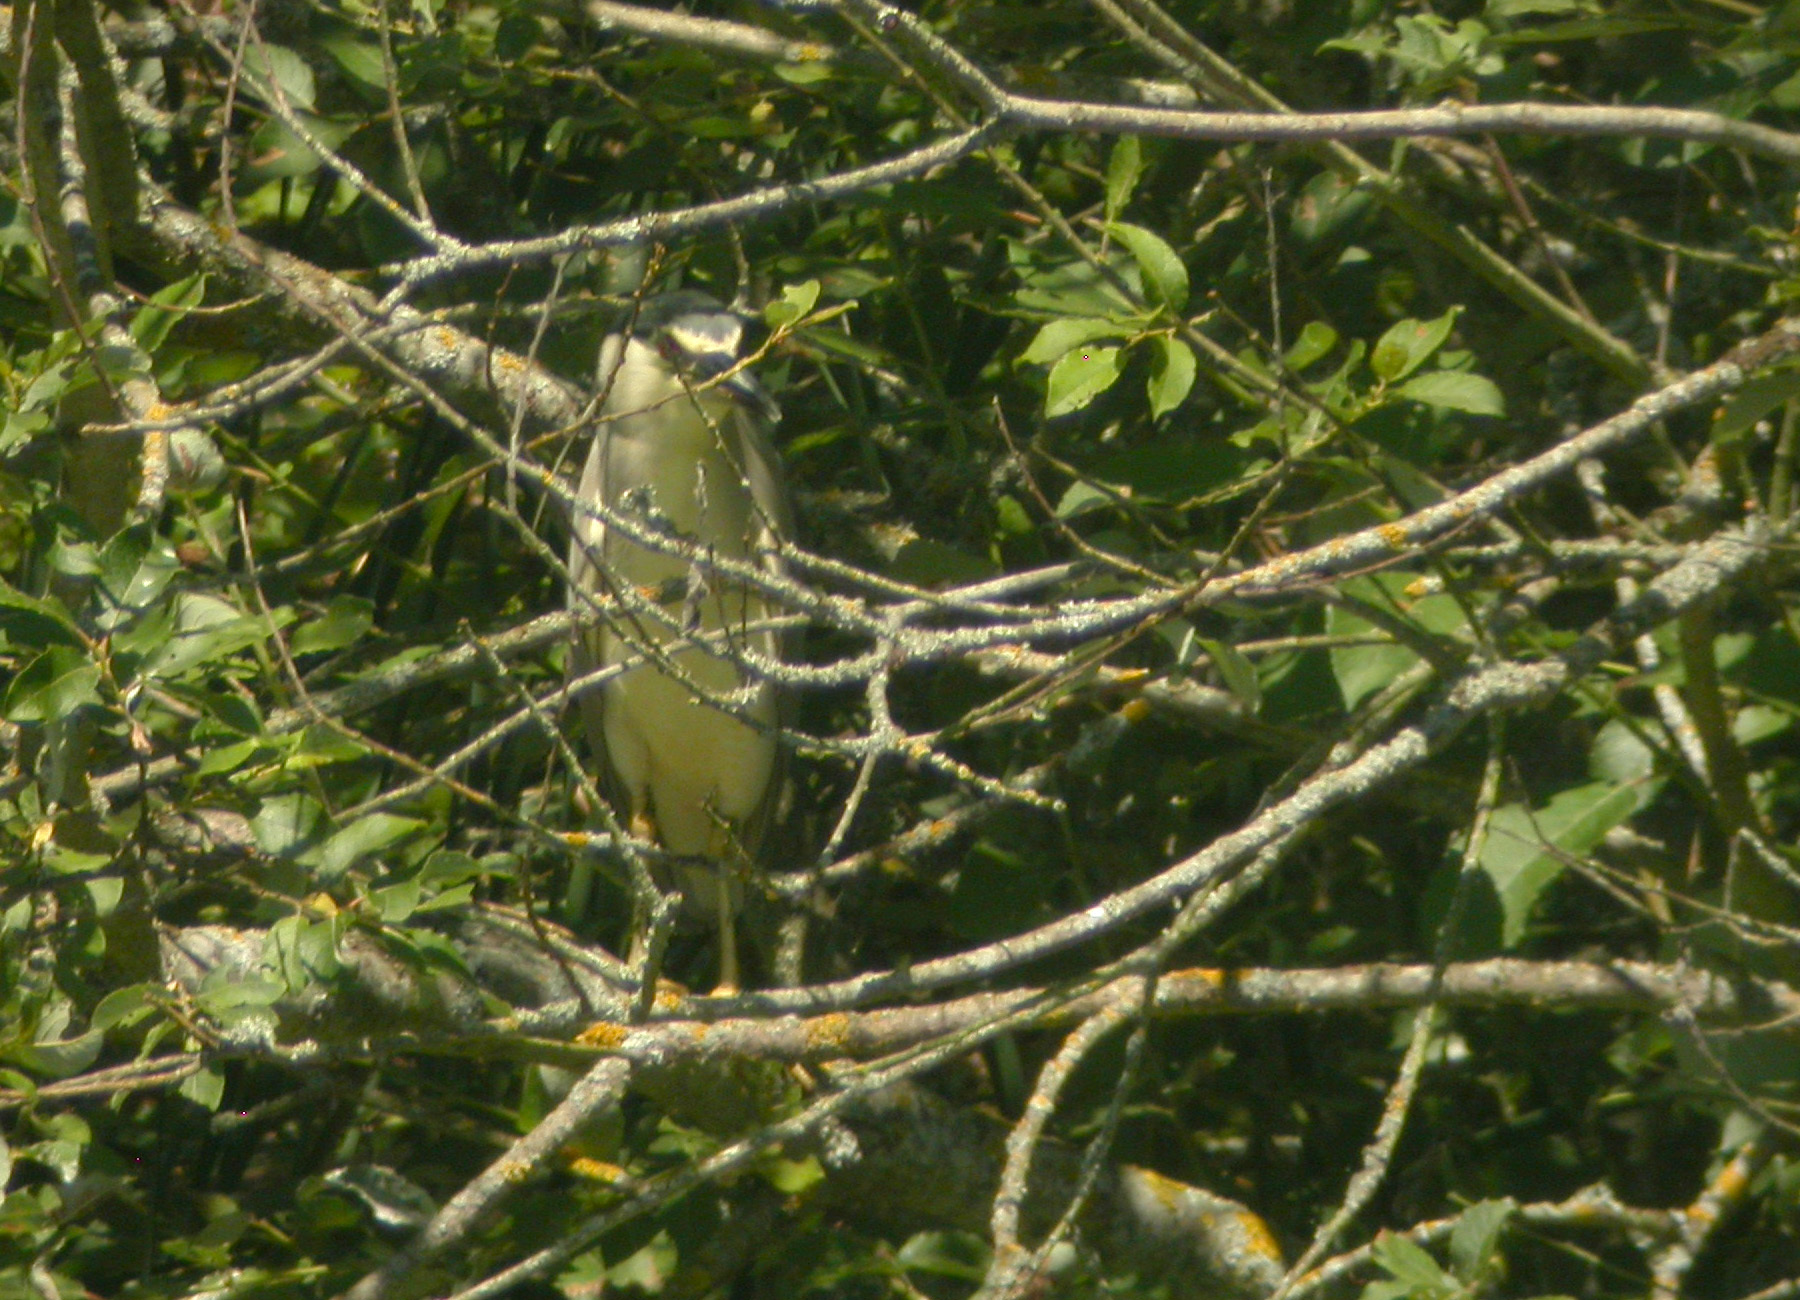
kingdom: Animalia
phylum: Chordata
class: Aves
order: Pelecaniformes
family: Ardeidae
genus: Nycticorax
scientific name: Nycticorax nycticorax
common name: Black-crowned night heron
